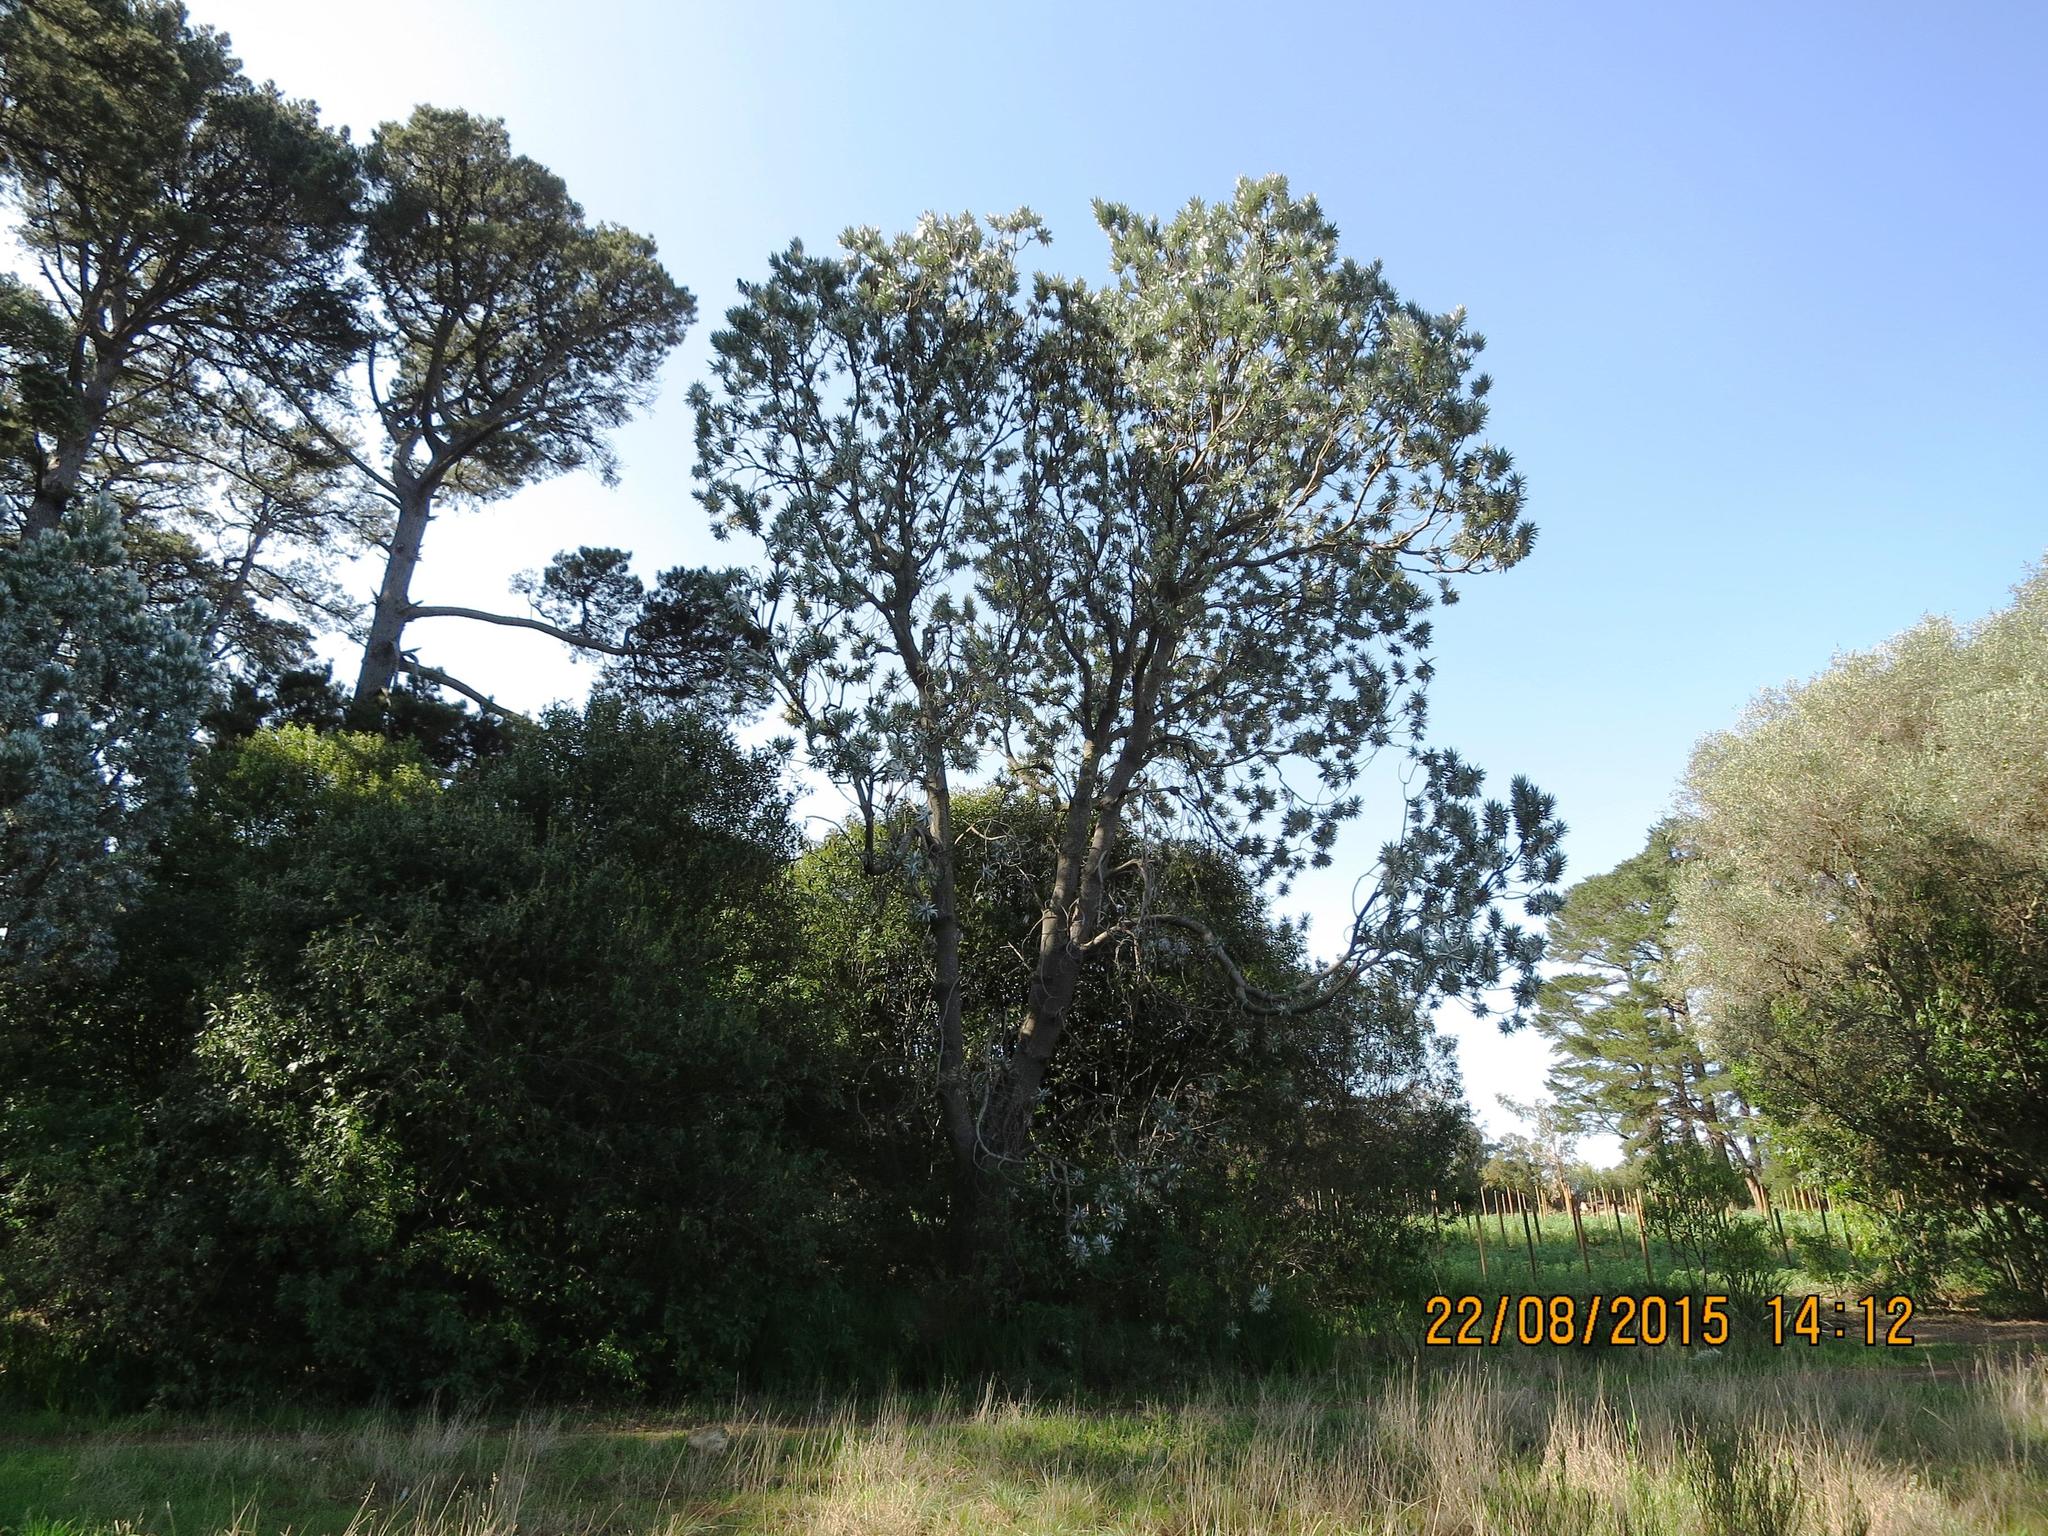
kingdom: Plantae
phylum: Tracheophyta
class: Magnoliopsida
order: Proteales
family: Proteaceae
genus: Leucadendron
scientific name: Leucadendron argenteum
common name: Cape silver tree
